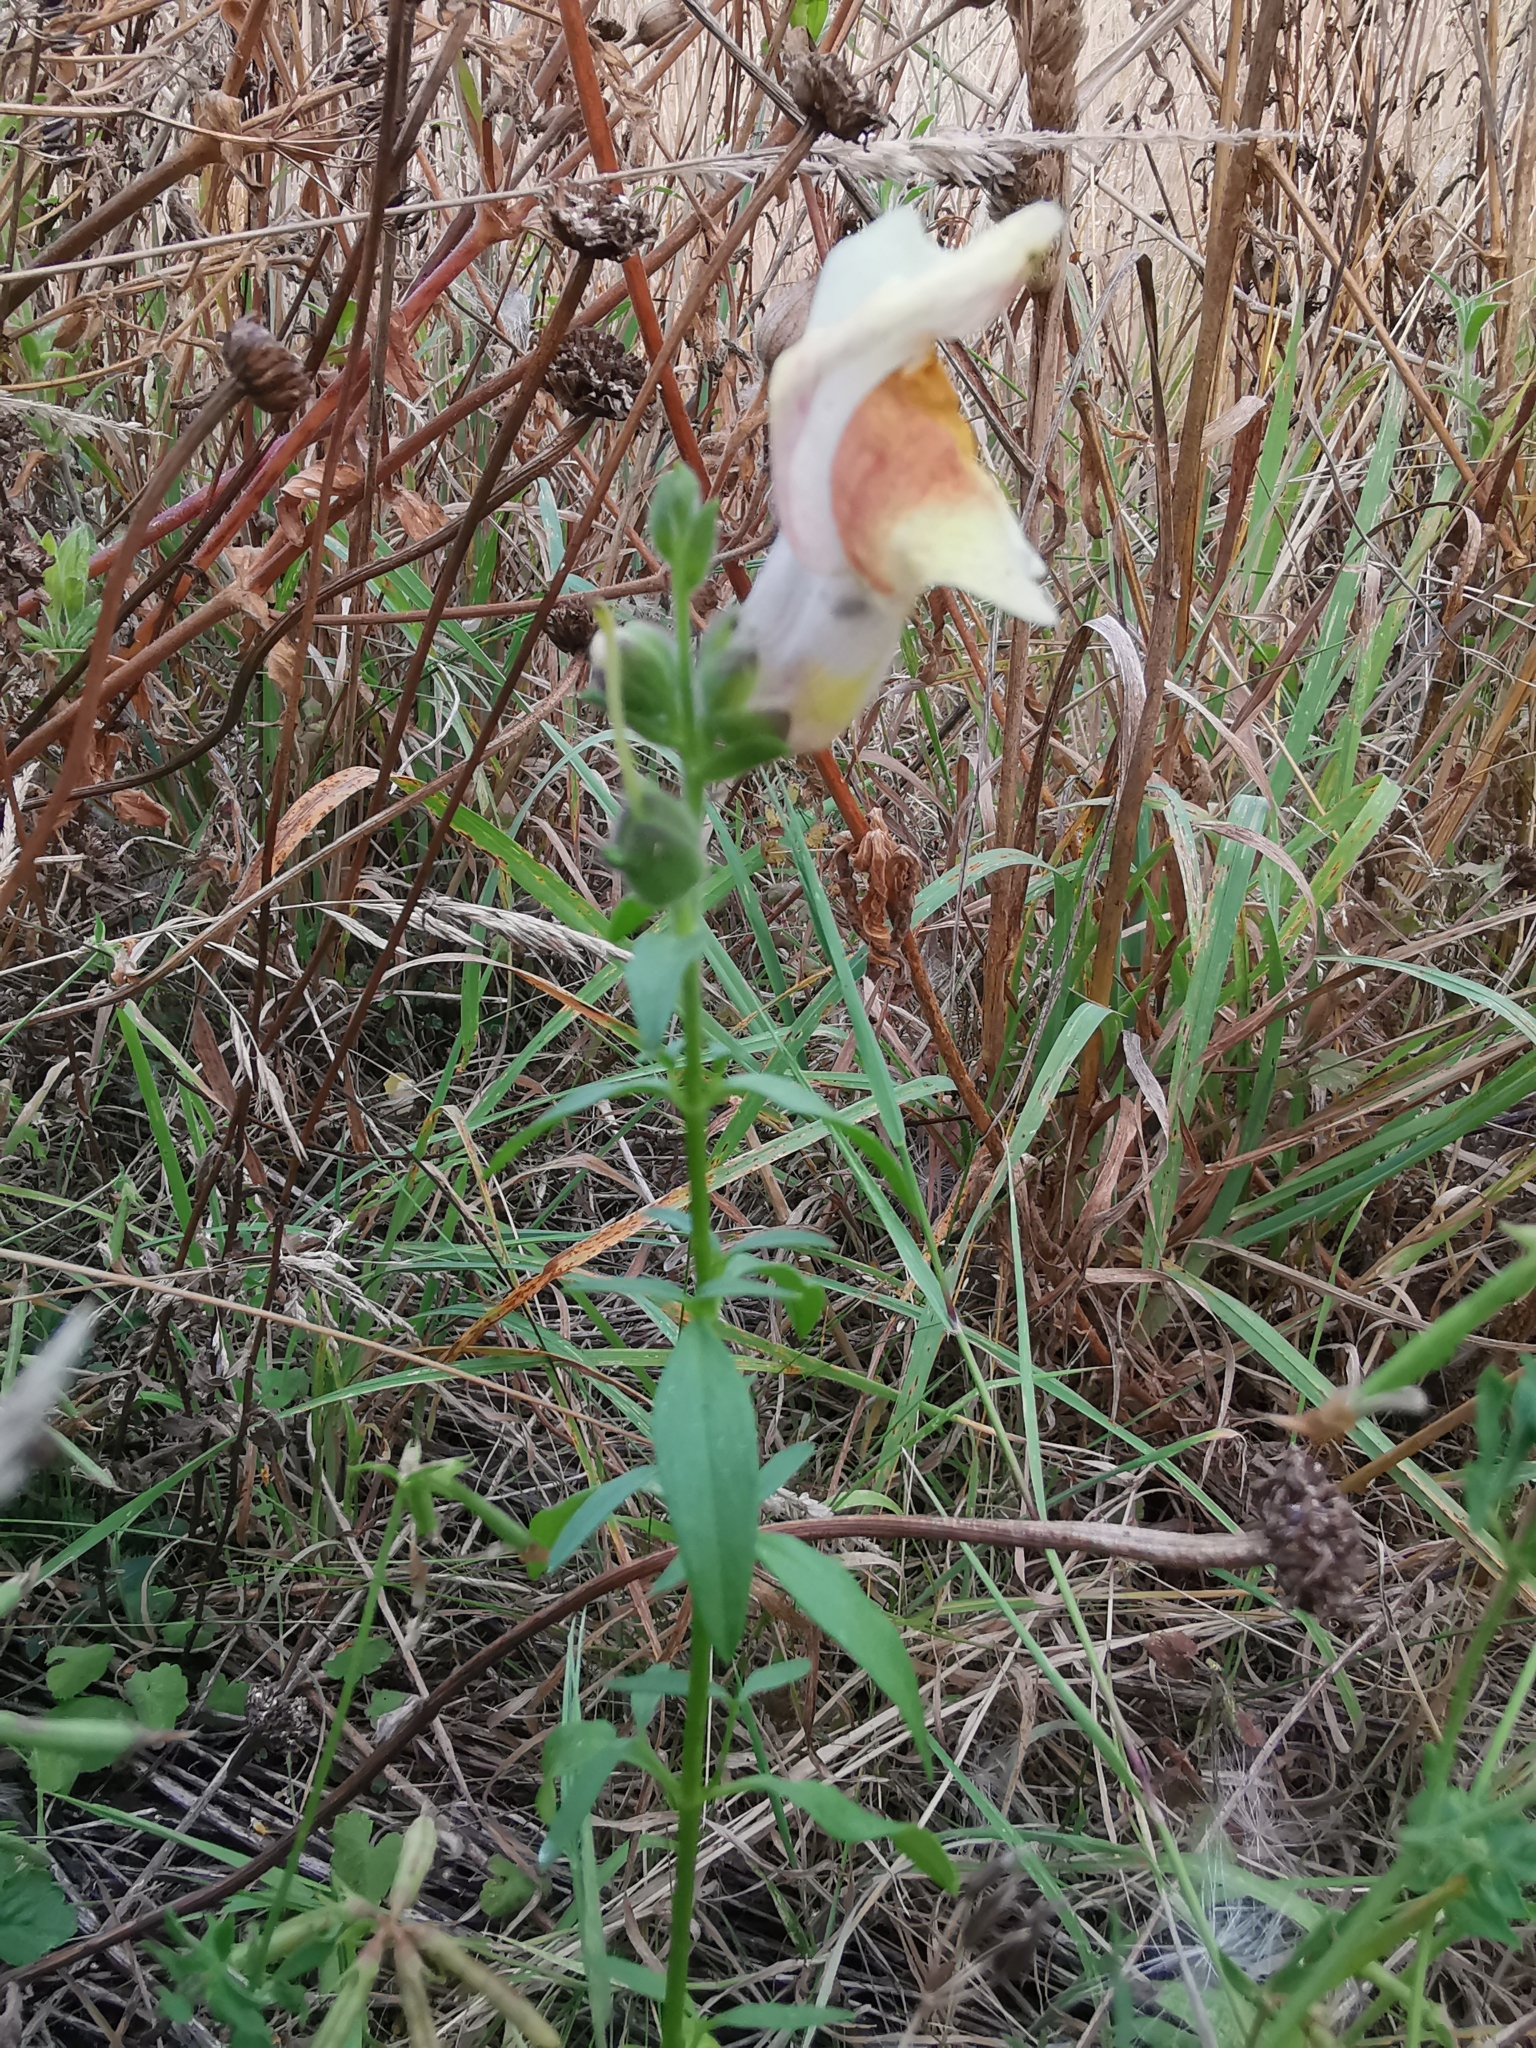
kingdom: Plantae
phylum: Tracheophyta
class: Magnoliopsida
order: Lamiales
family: Plantaginaceae
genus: Antirrhinum
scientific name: Antirrhinum majus
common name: Snapdragon
